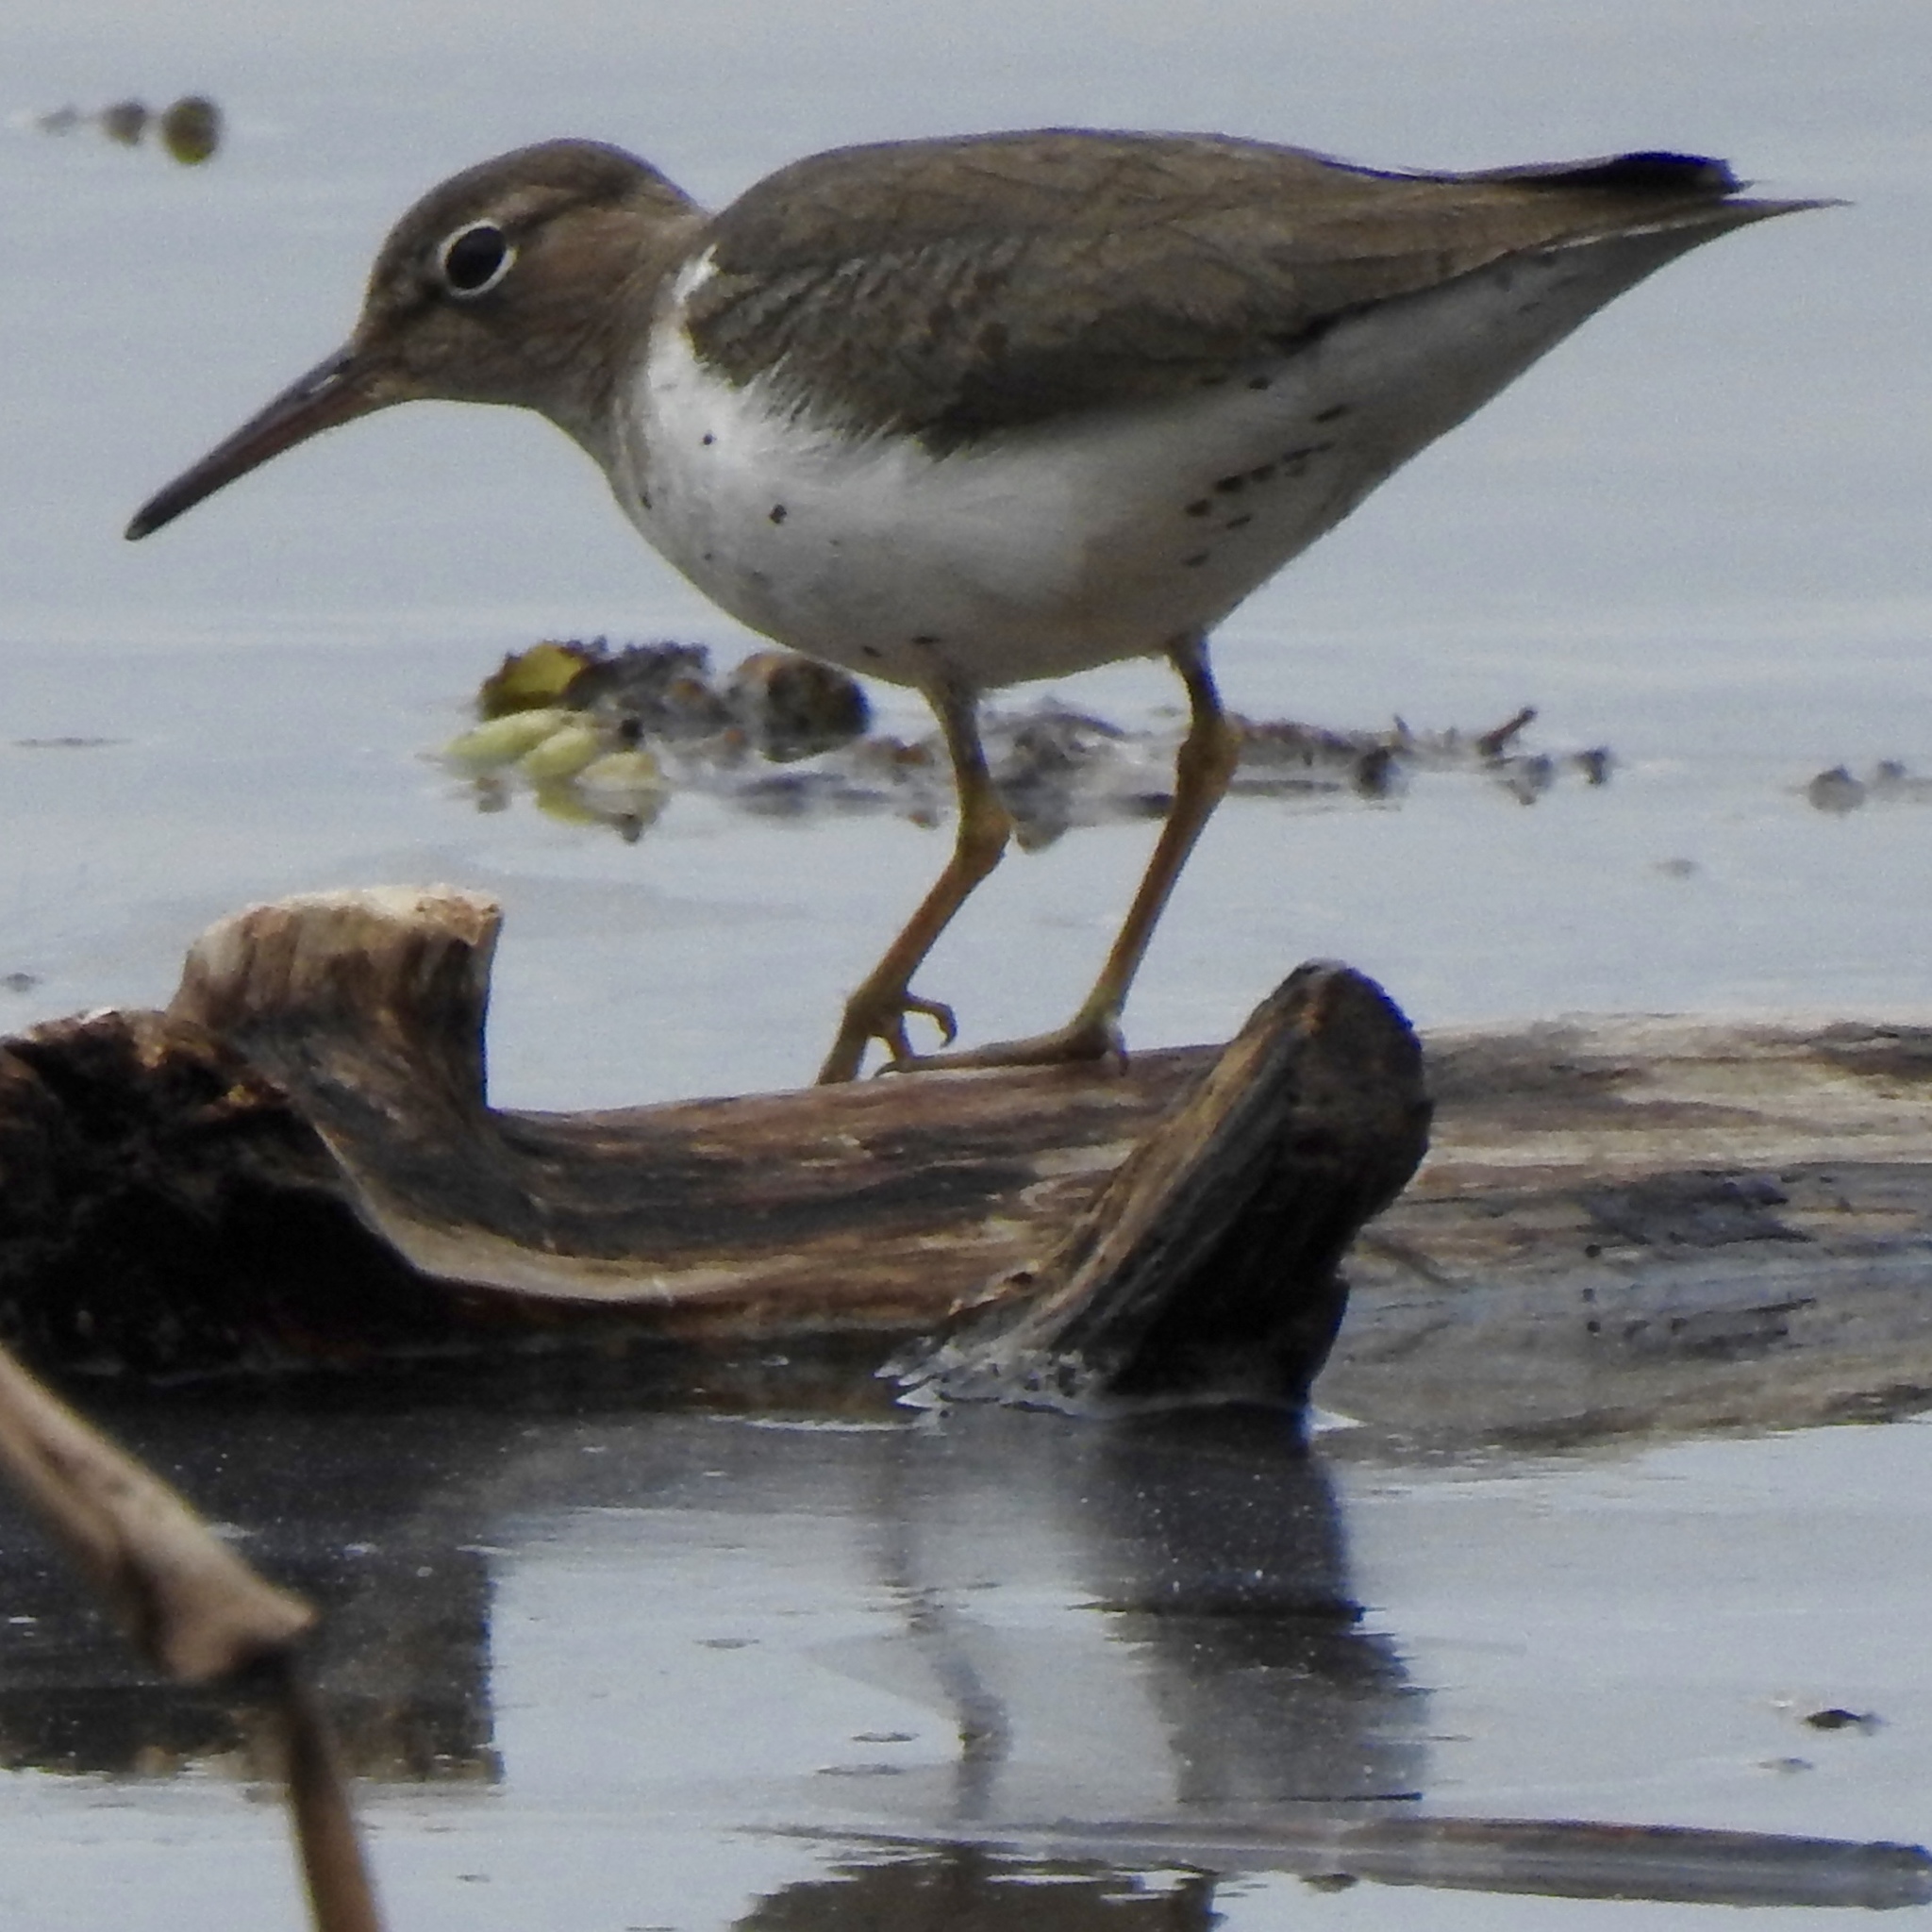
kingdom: Animalia
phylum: Chordata
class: Aves
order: Charadriiformes
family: Scolopacidae
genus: Actitis
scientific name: Actitis macularius
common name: Spotted sandpiper
